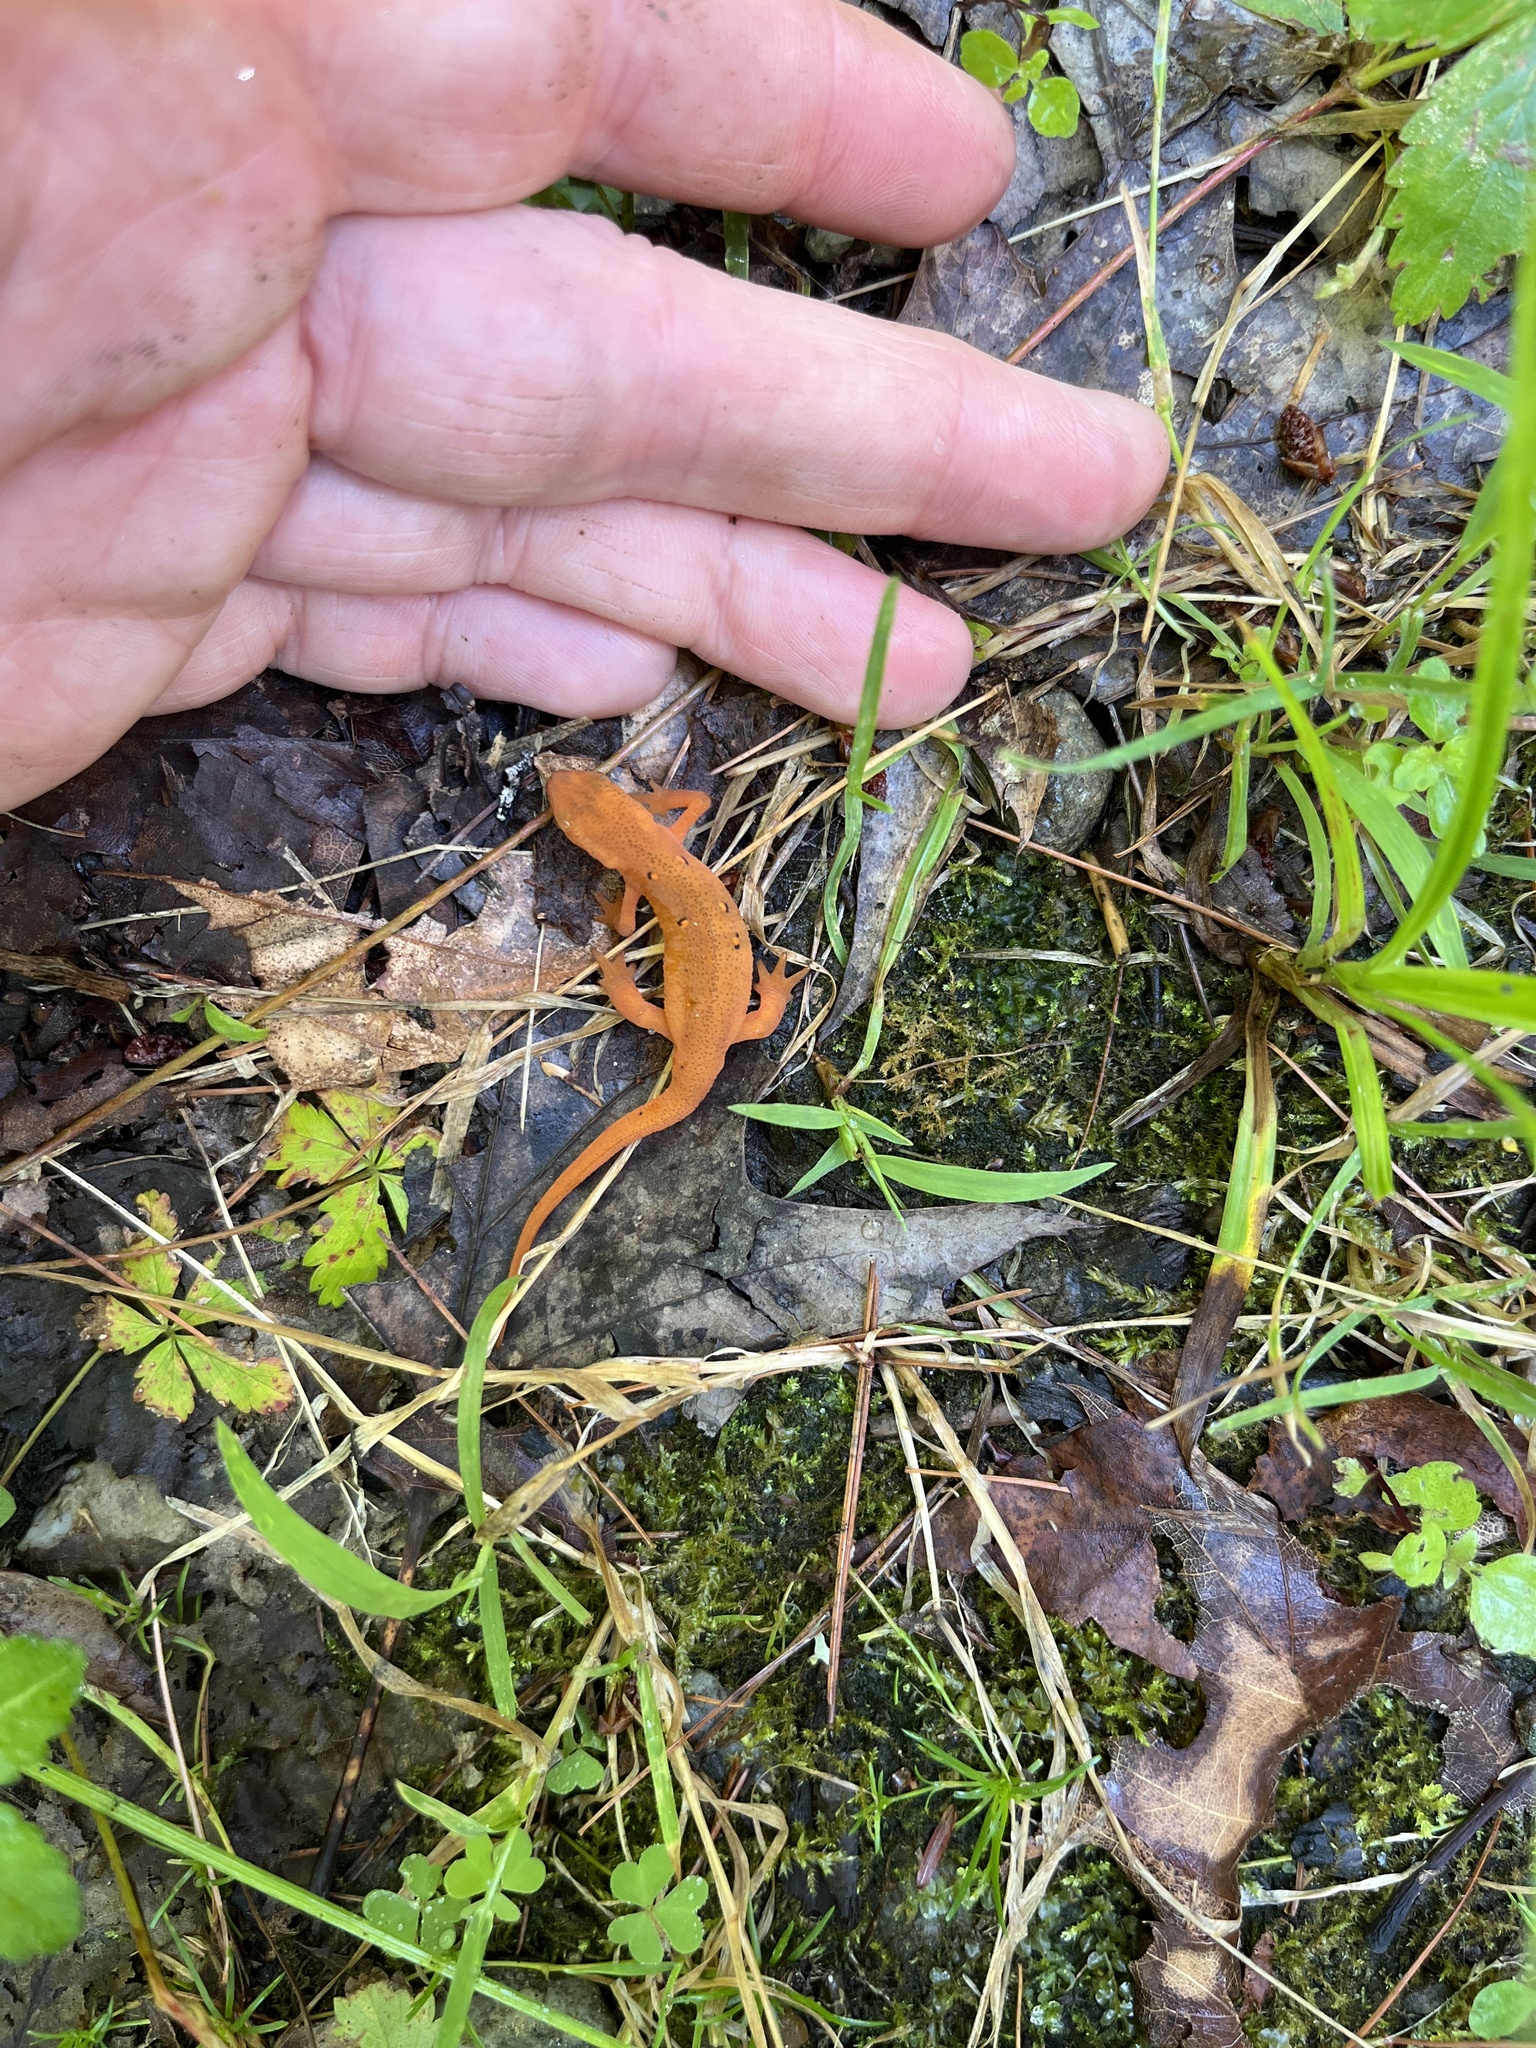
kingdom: Animalia
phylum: Chordata
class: Amphibia
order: Caudata
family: Salamandridae
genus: Notophthalmus
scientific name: Notophthalmus viridescens
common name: Eastern newt
